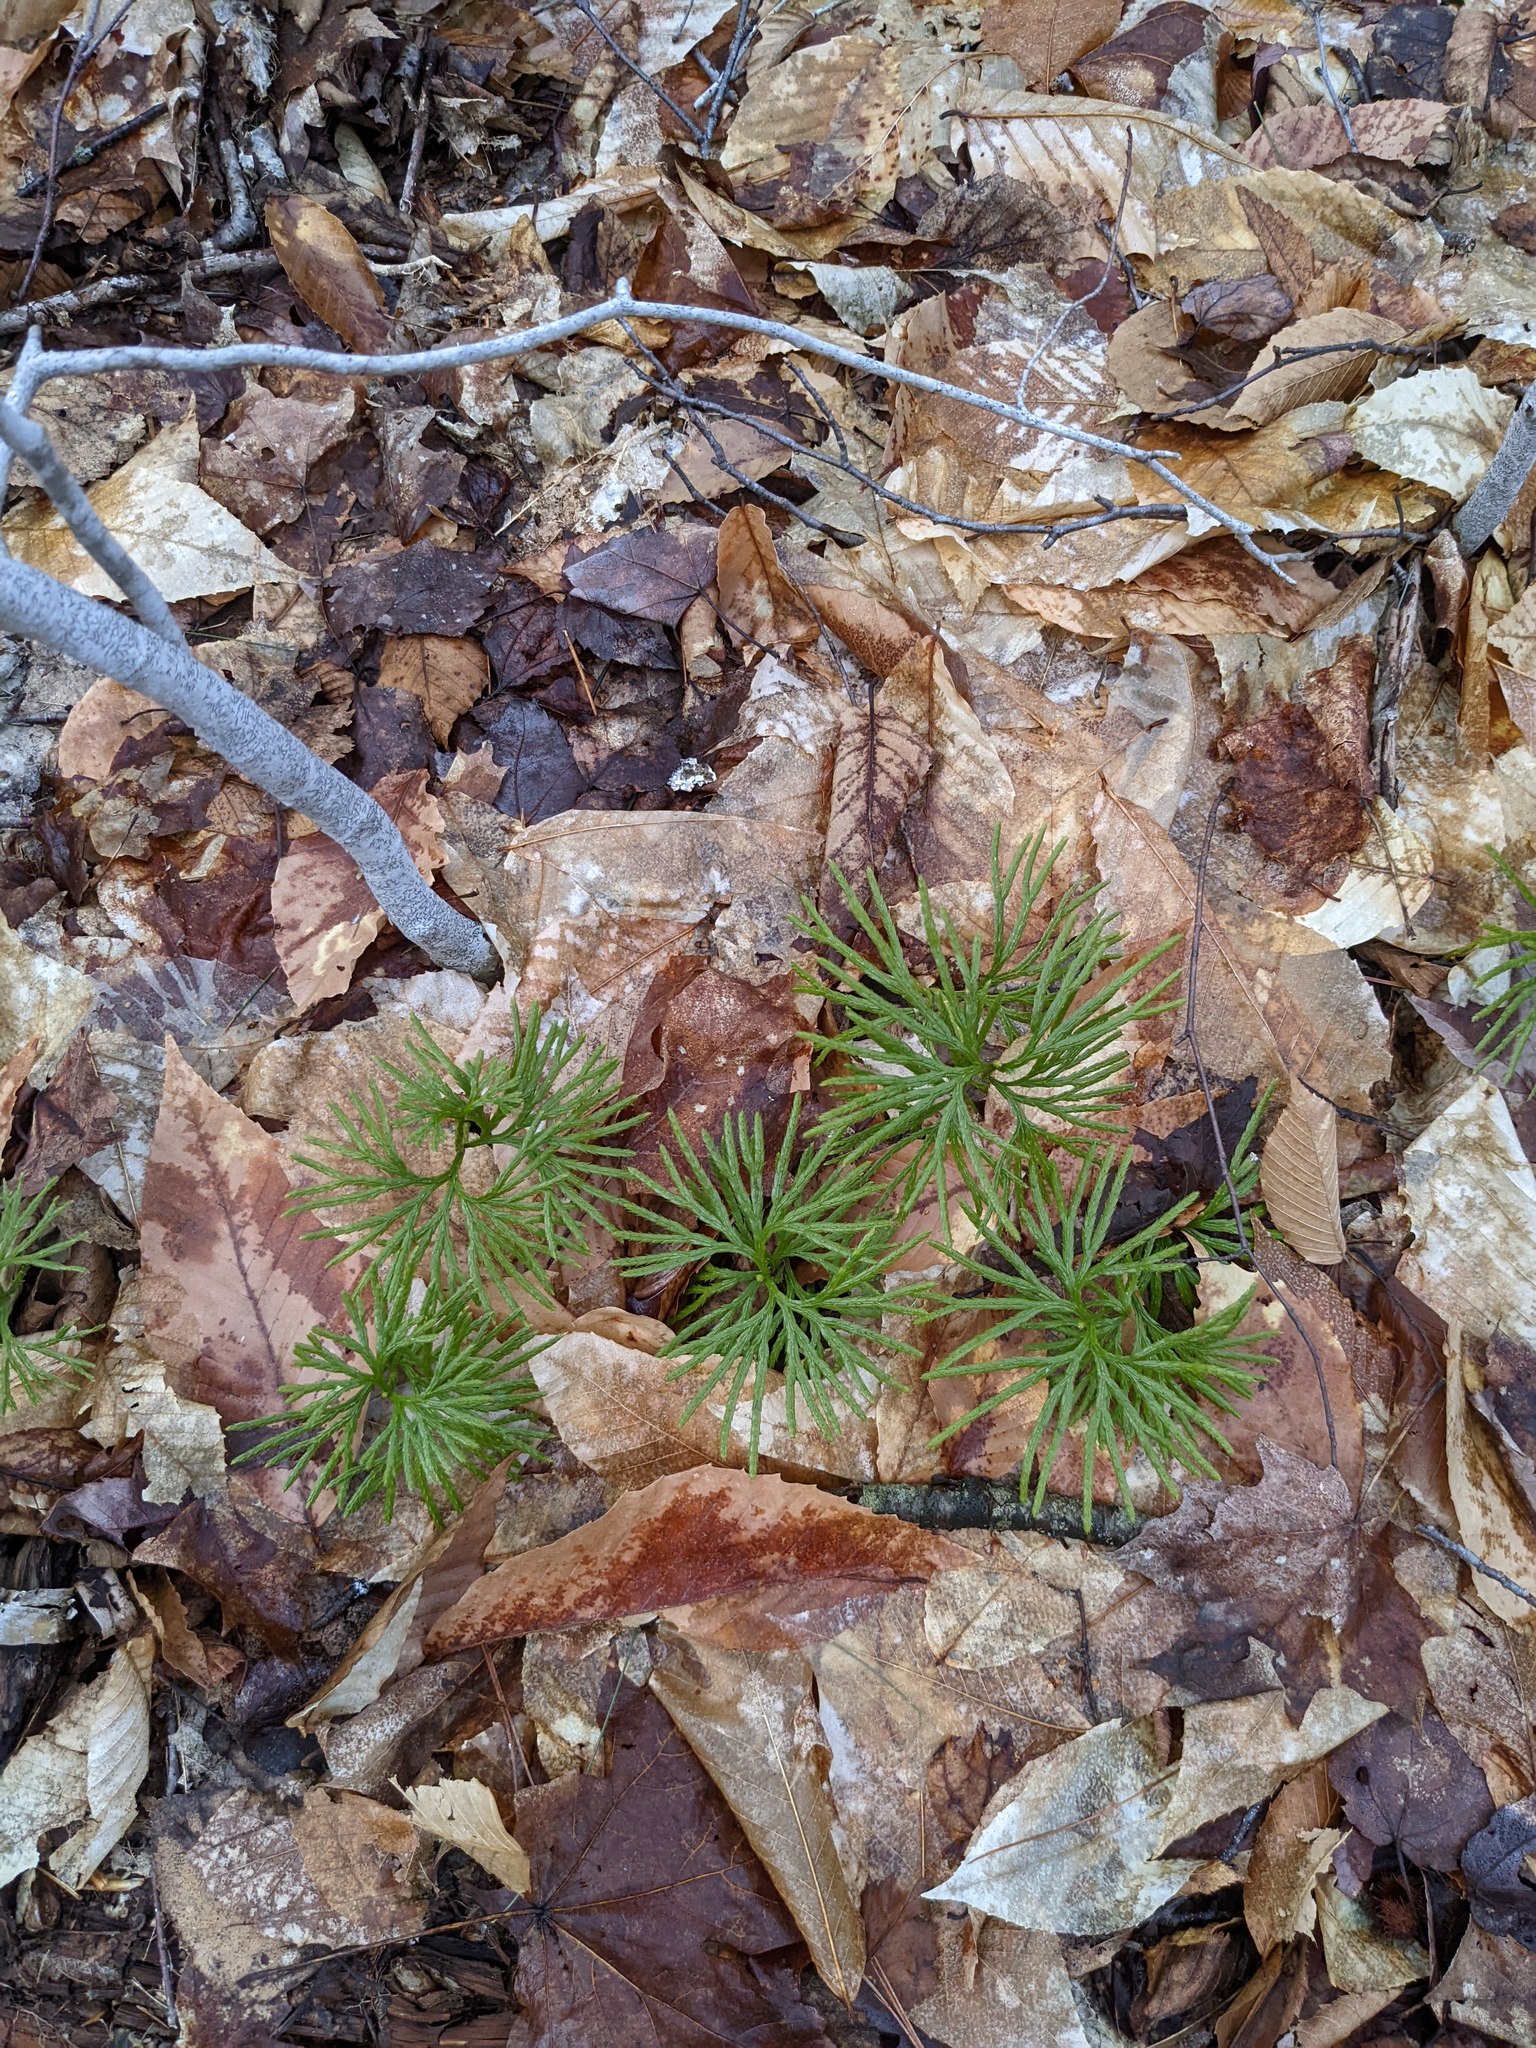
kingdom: Plantae
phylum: Tracheophyta
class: Lycopodiopsida
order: Lycopodiales
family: Lycopodiaceae
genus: Diphasiastrum
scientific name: Diphasiastrum digitatum
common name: Southern running-pine
